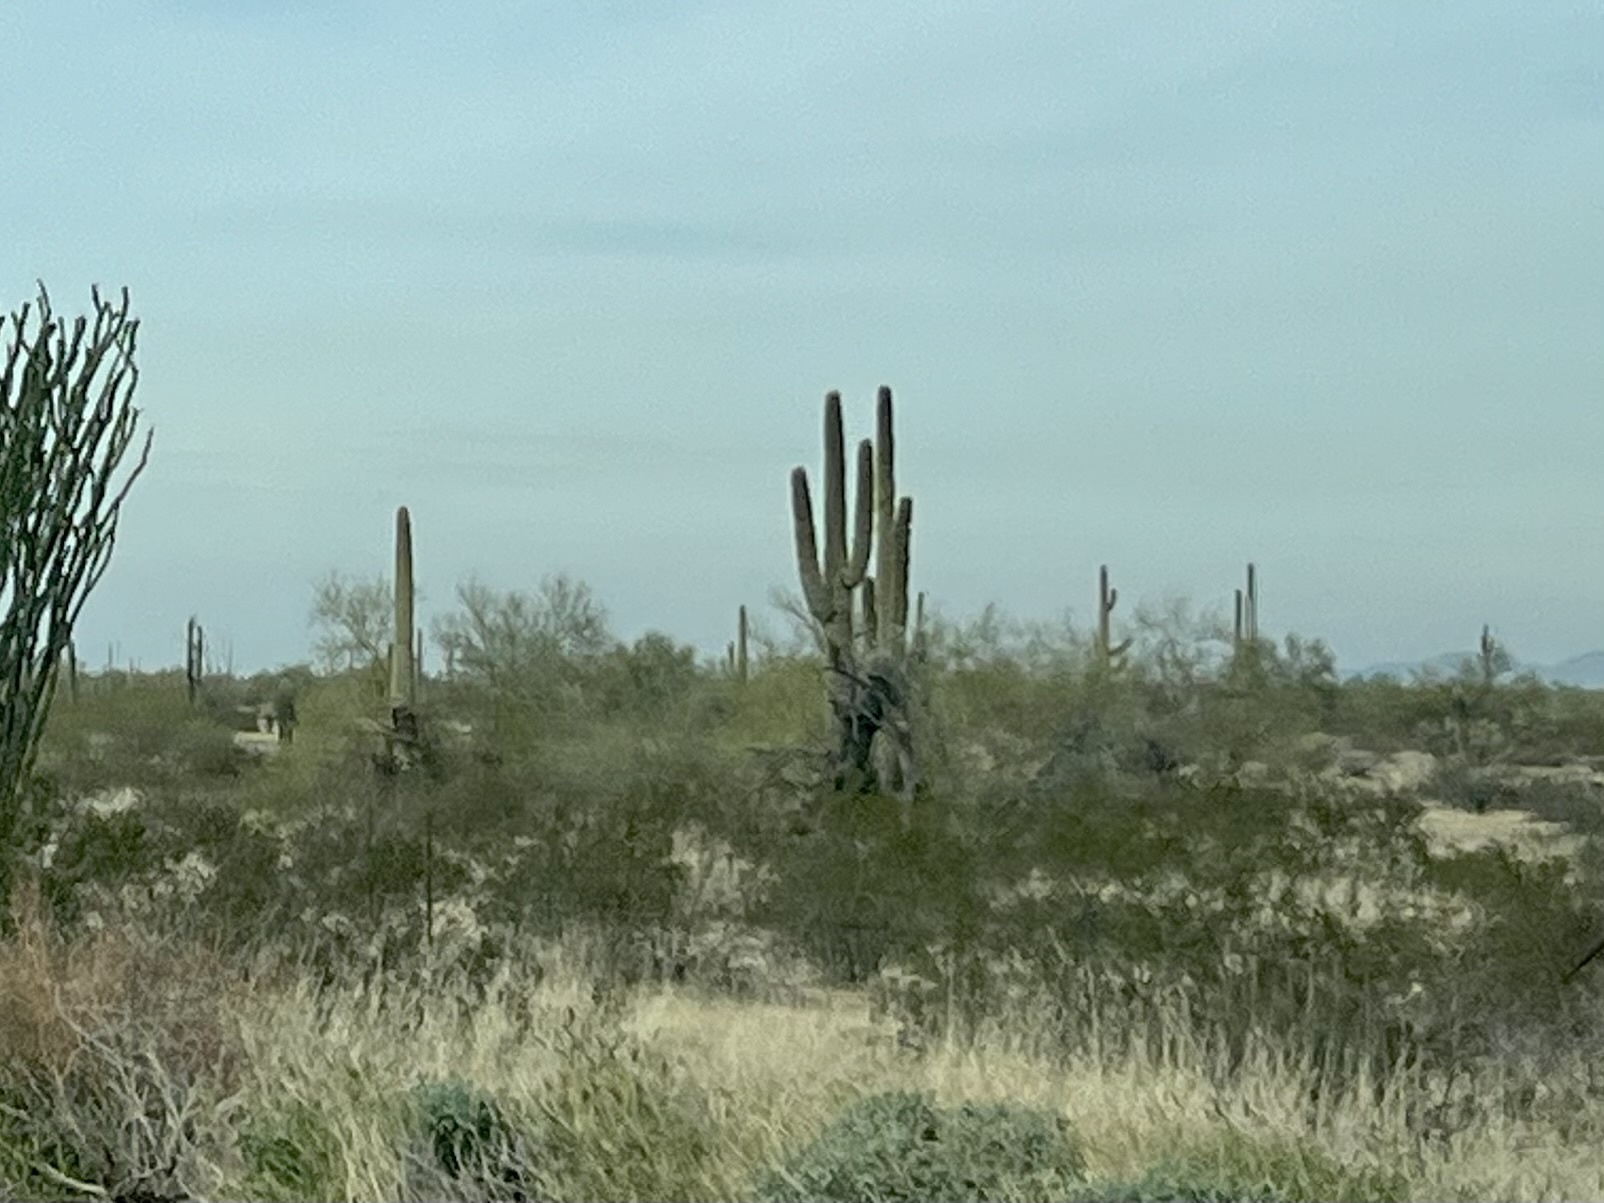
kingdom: Plantae
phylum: Tracheophyta
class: Magnoliopsida
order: Caryophyllales
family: Cactaceae
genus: Carnegiea
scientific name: Carnegiea gigantea
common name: Saguaro
